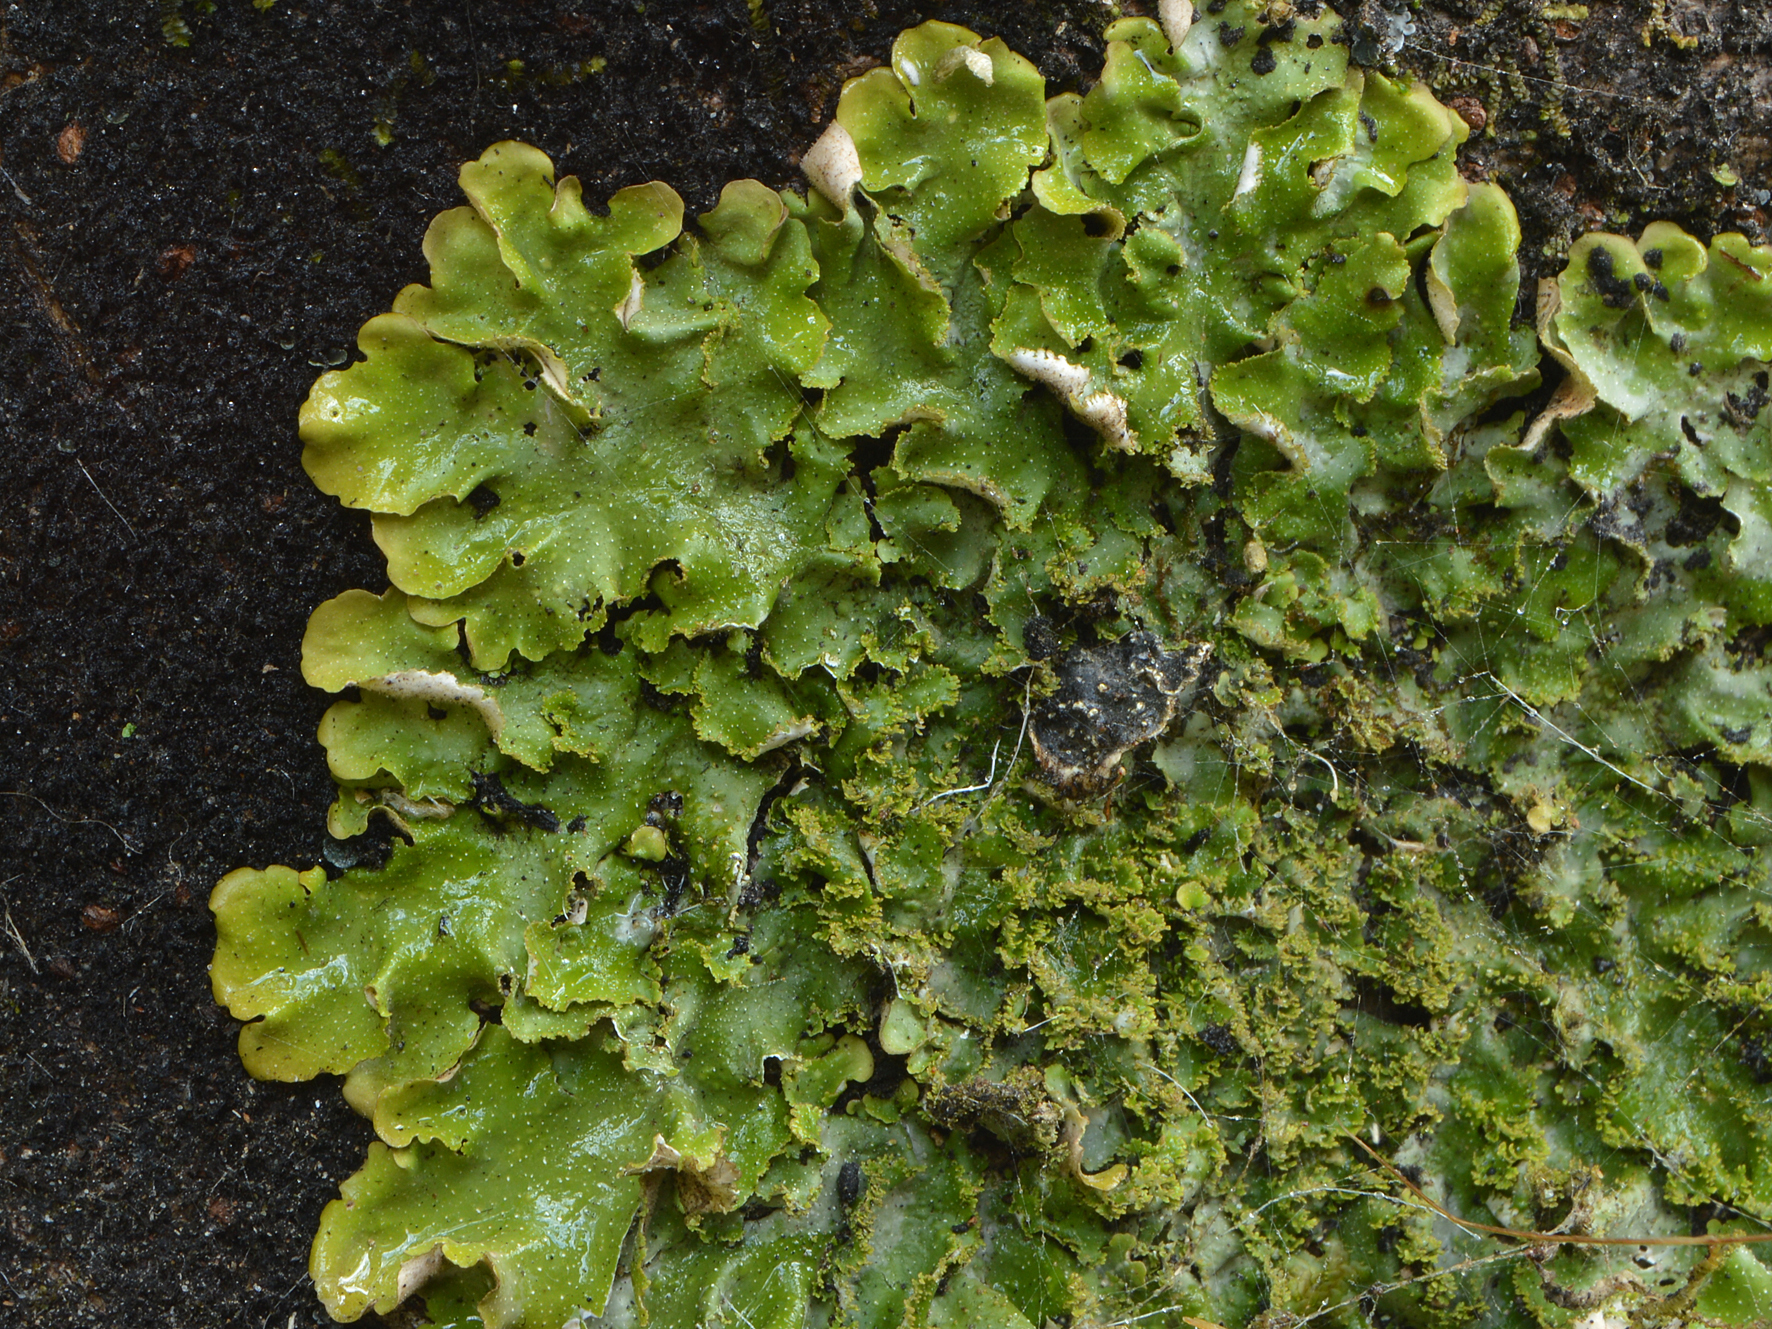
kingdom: Fungi
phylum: Ascomycota
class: Lecanoromycetes
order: Peltigerales
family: Lobariaceae
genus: Pseudocyphellaria
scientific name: Pseudocyphellaria episticta
